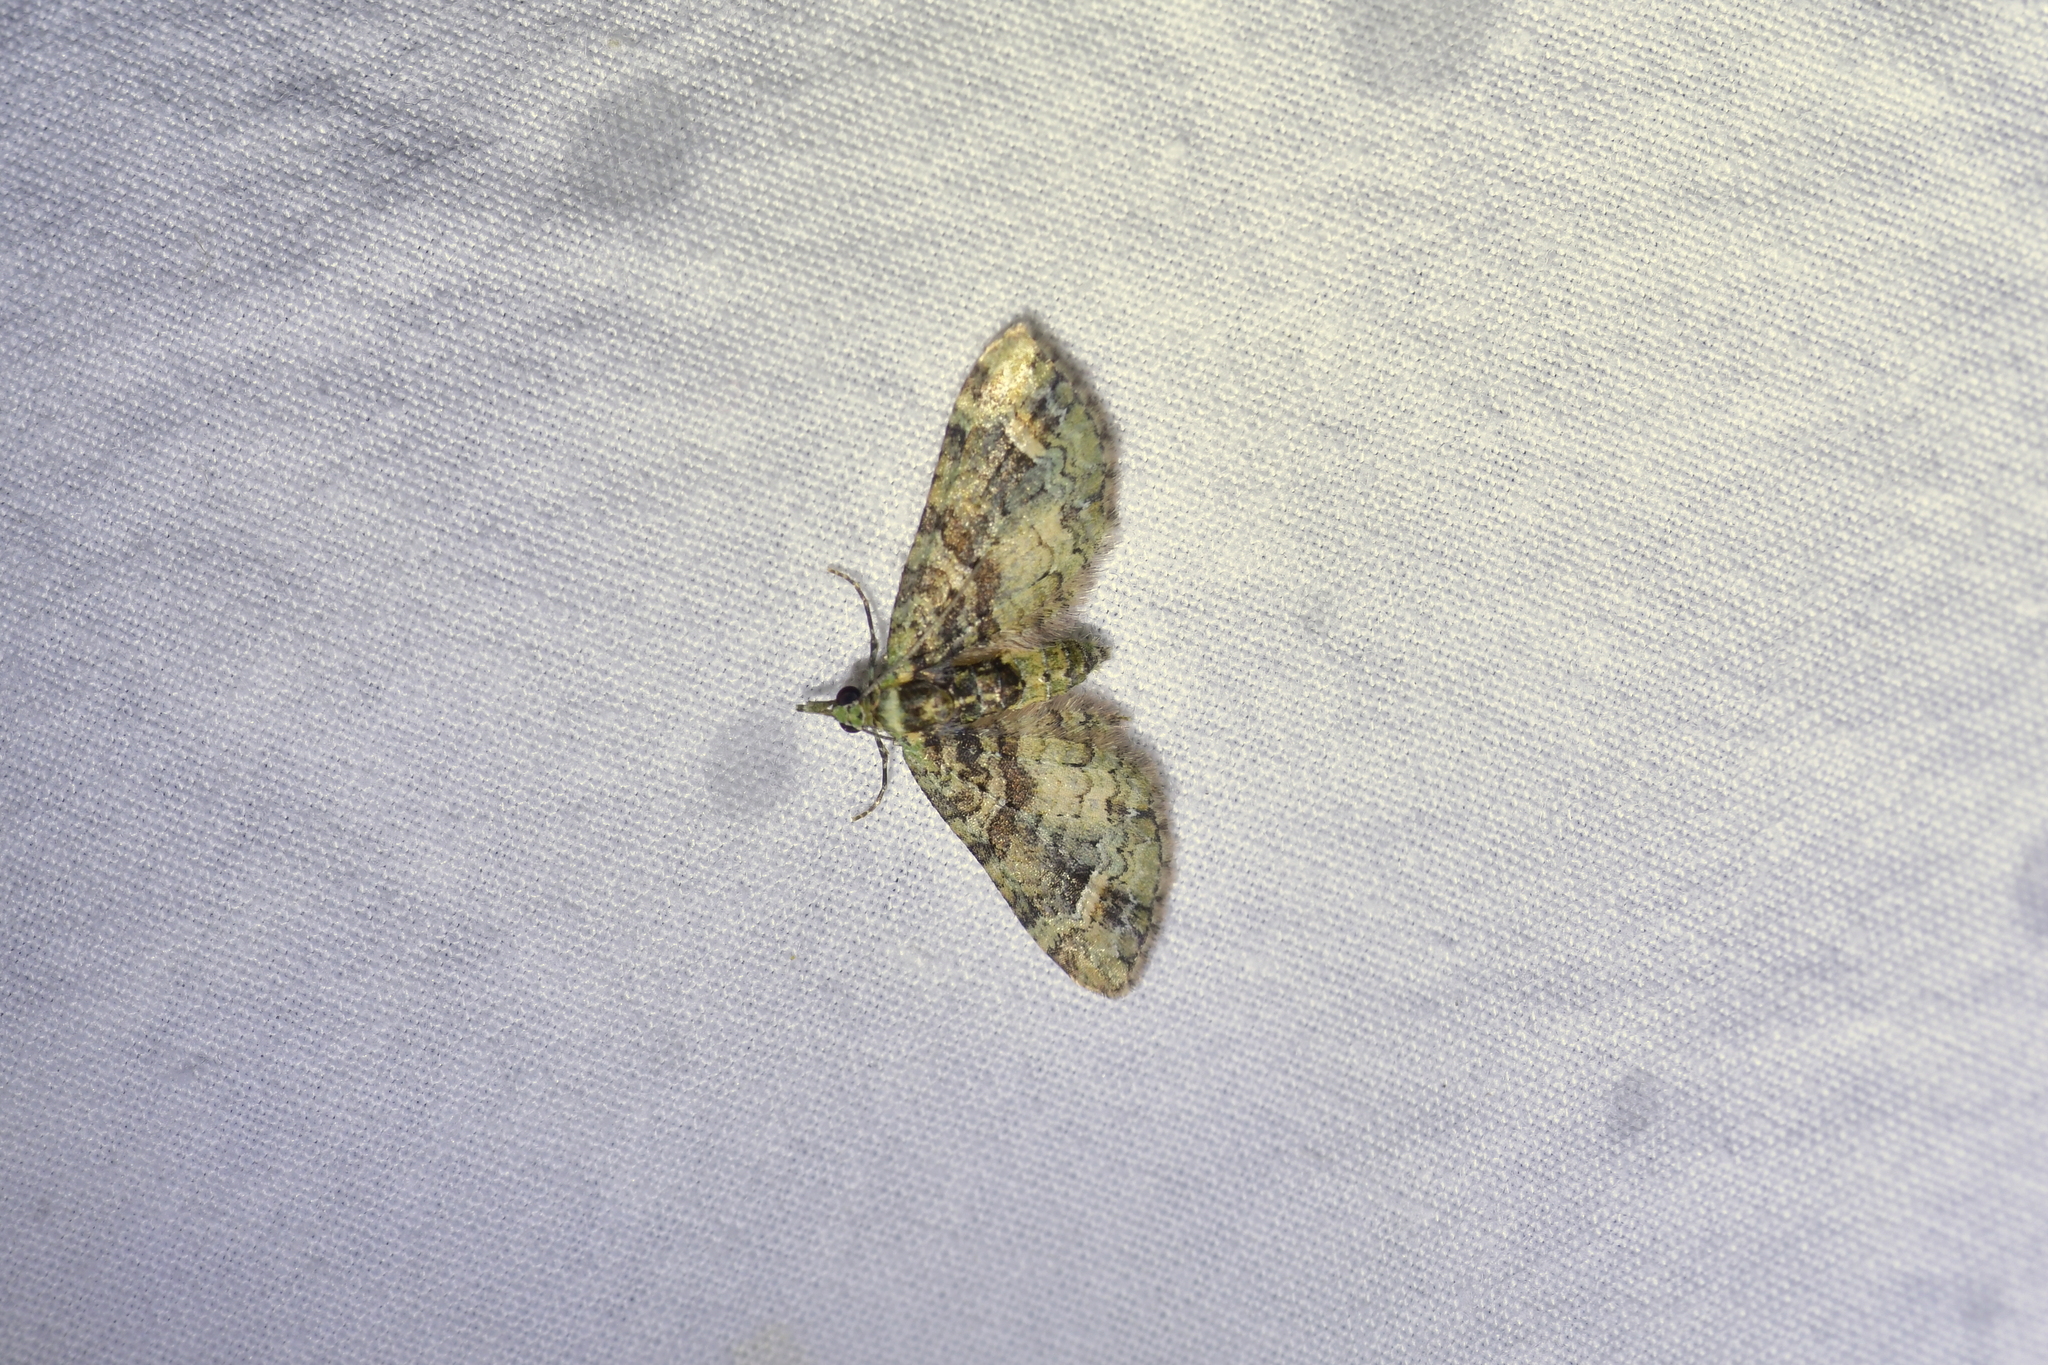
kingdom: Animalia
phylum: Arthropoda
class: Insecta
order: Lepidoptera
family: Geometridae
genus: Idaea
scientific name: Idaea mutanda
